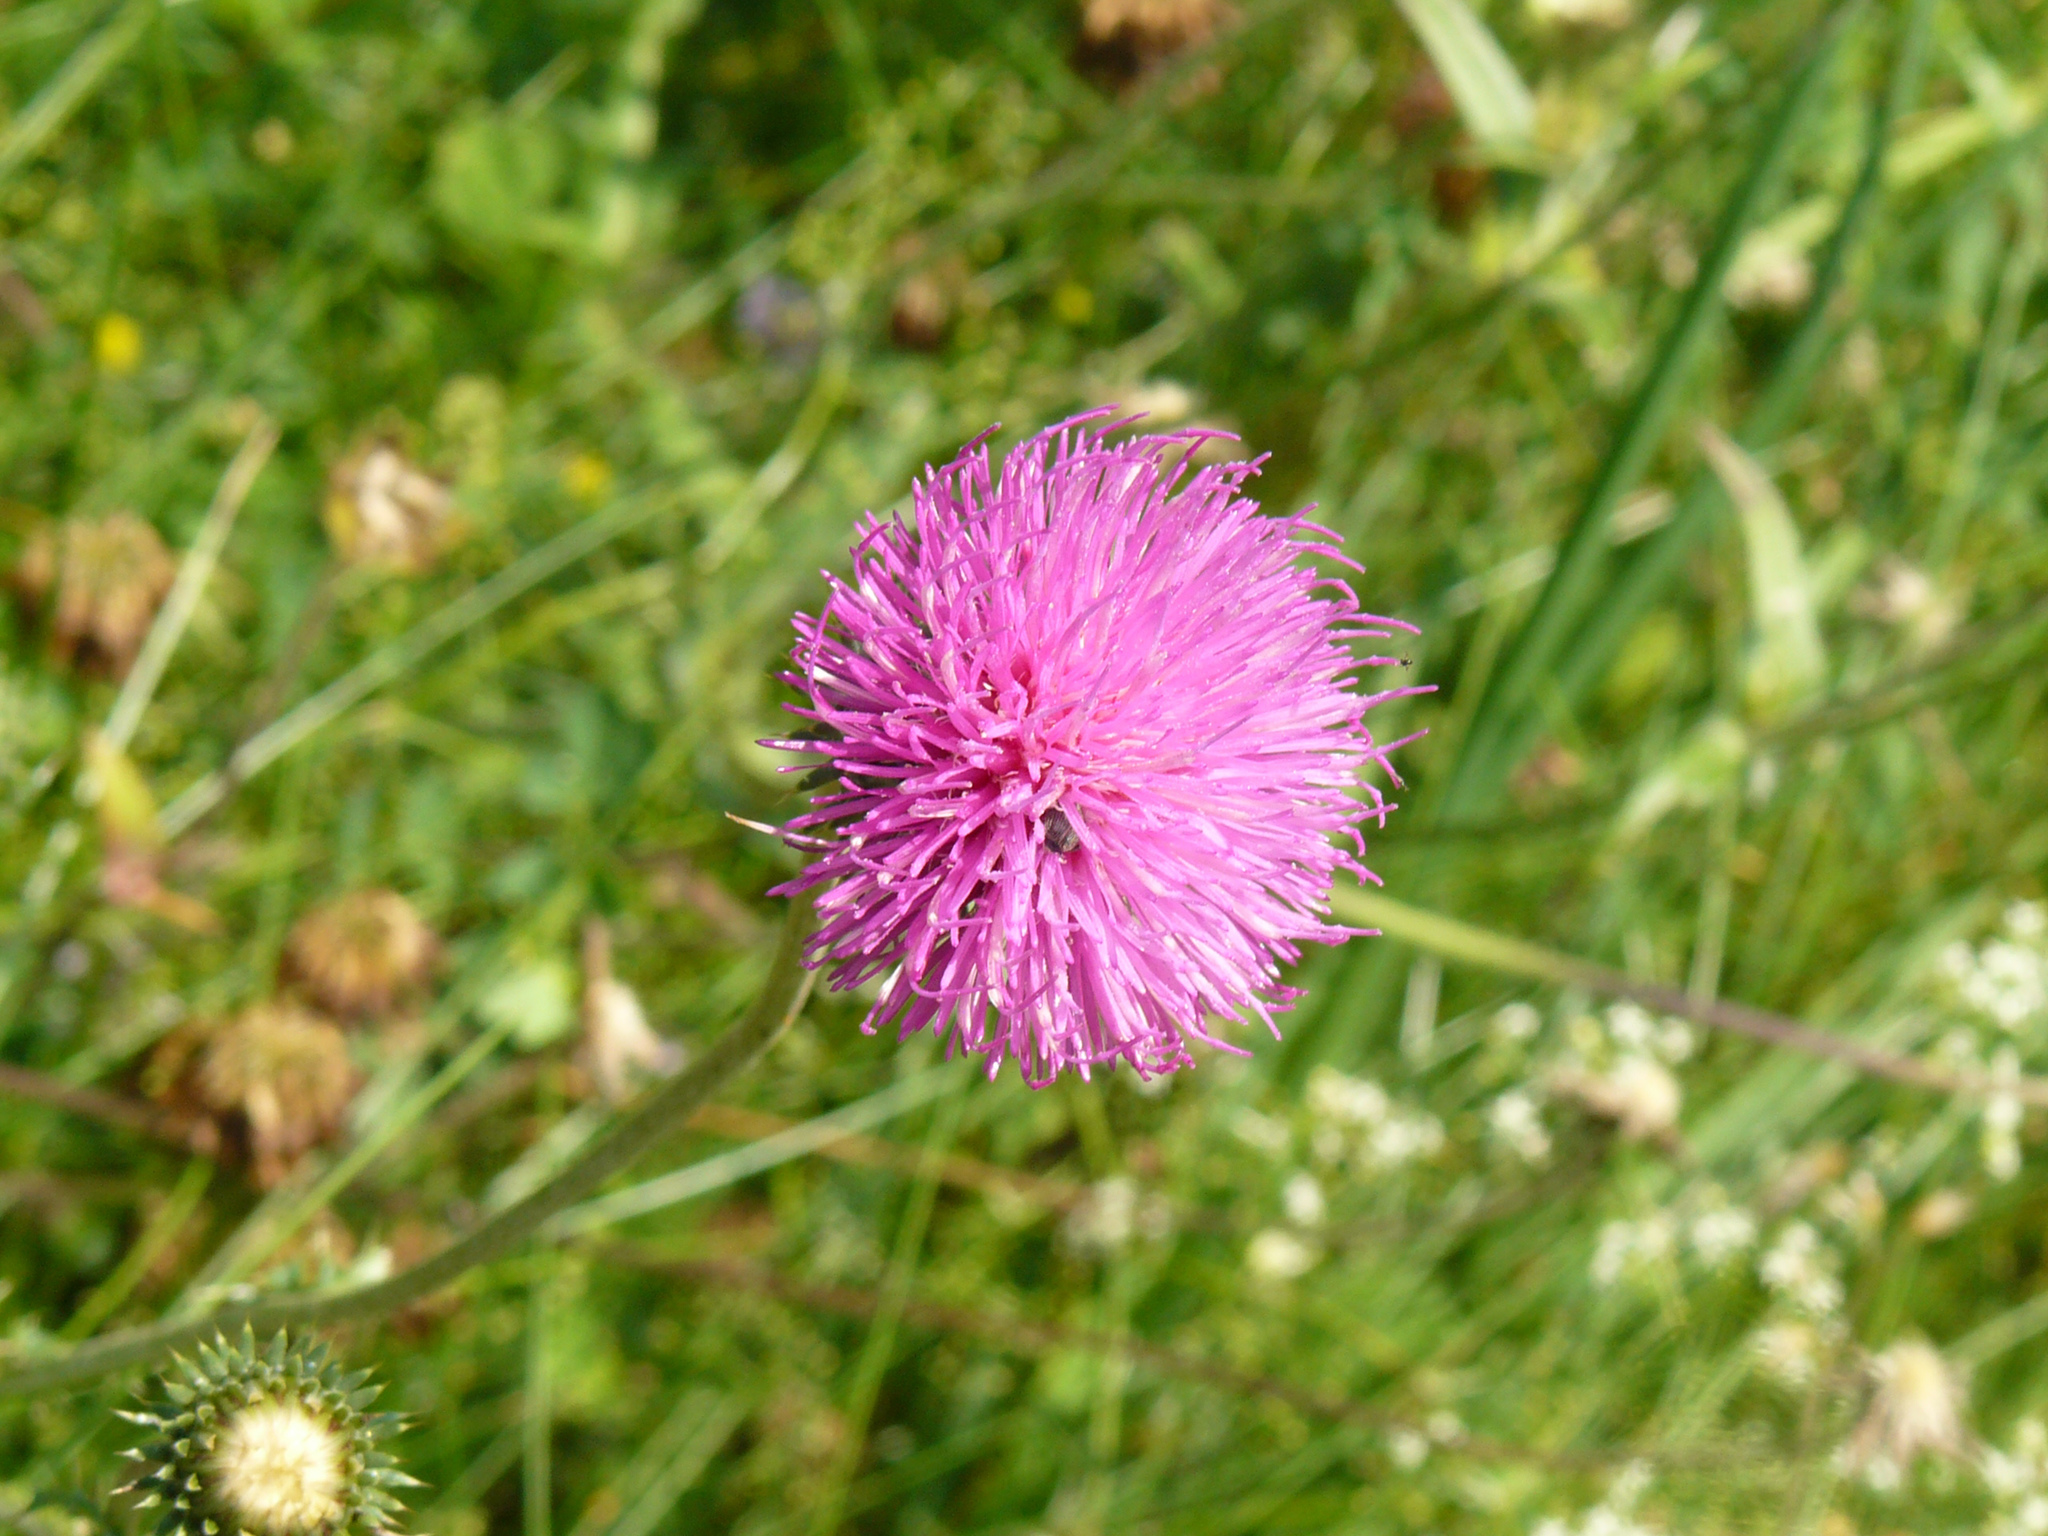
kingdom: Plantae
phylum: Tracheophyta
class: Magnoliopsida
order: Asterales
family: Asteraceae
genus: Carduus
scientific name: Carduus defloratus
